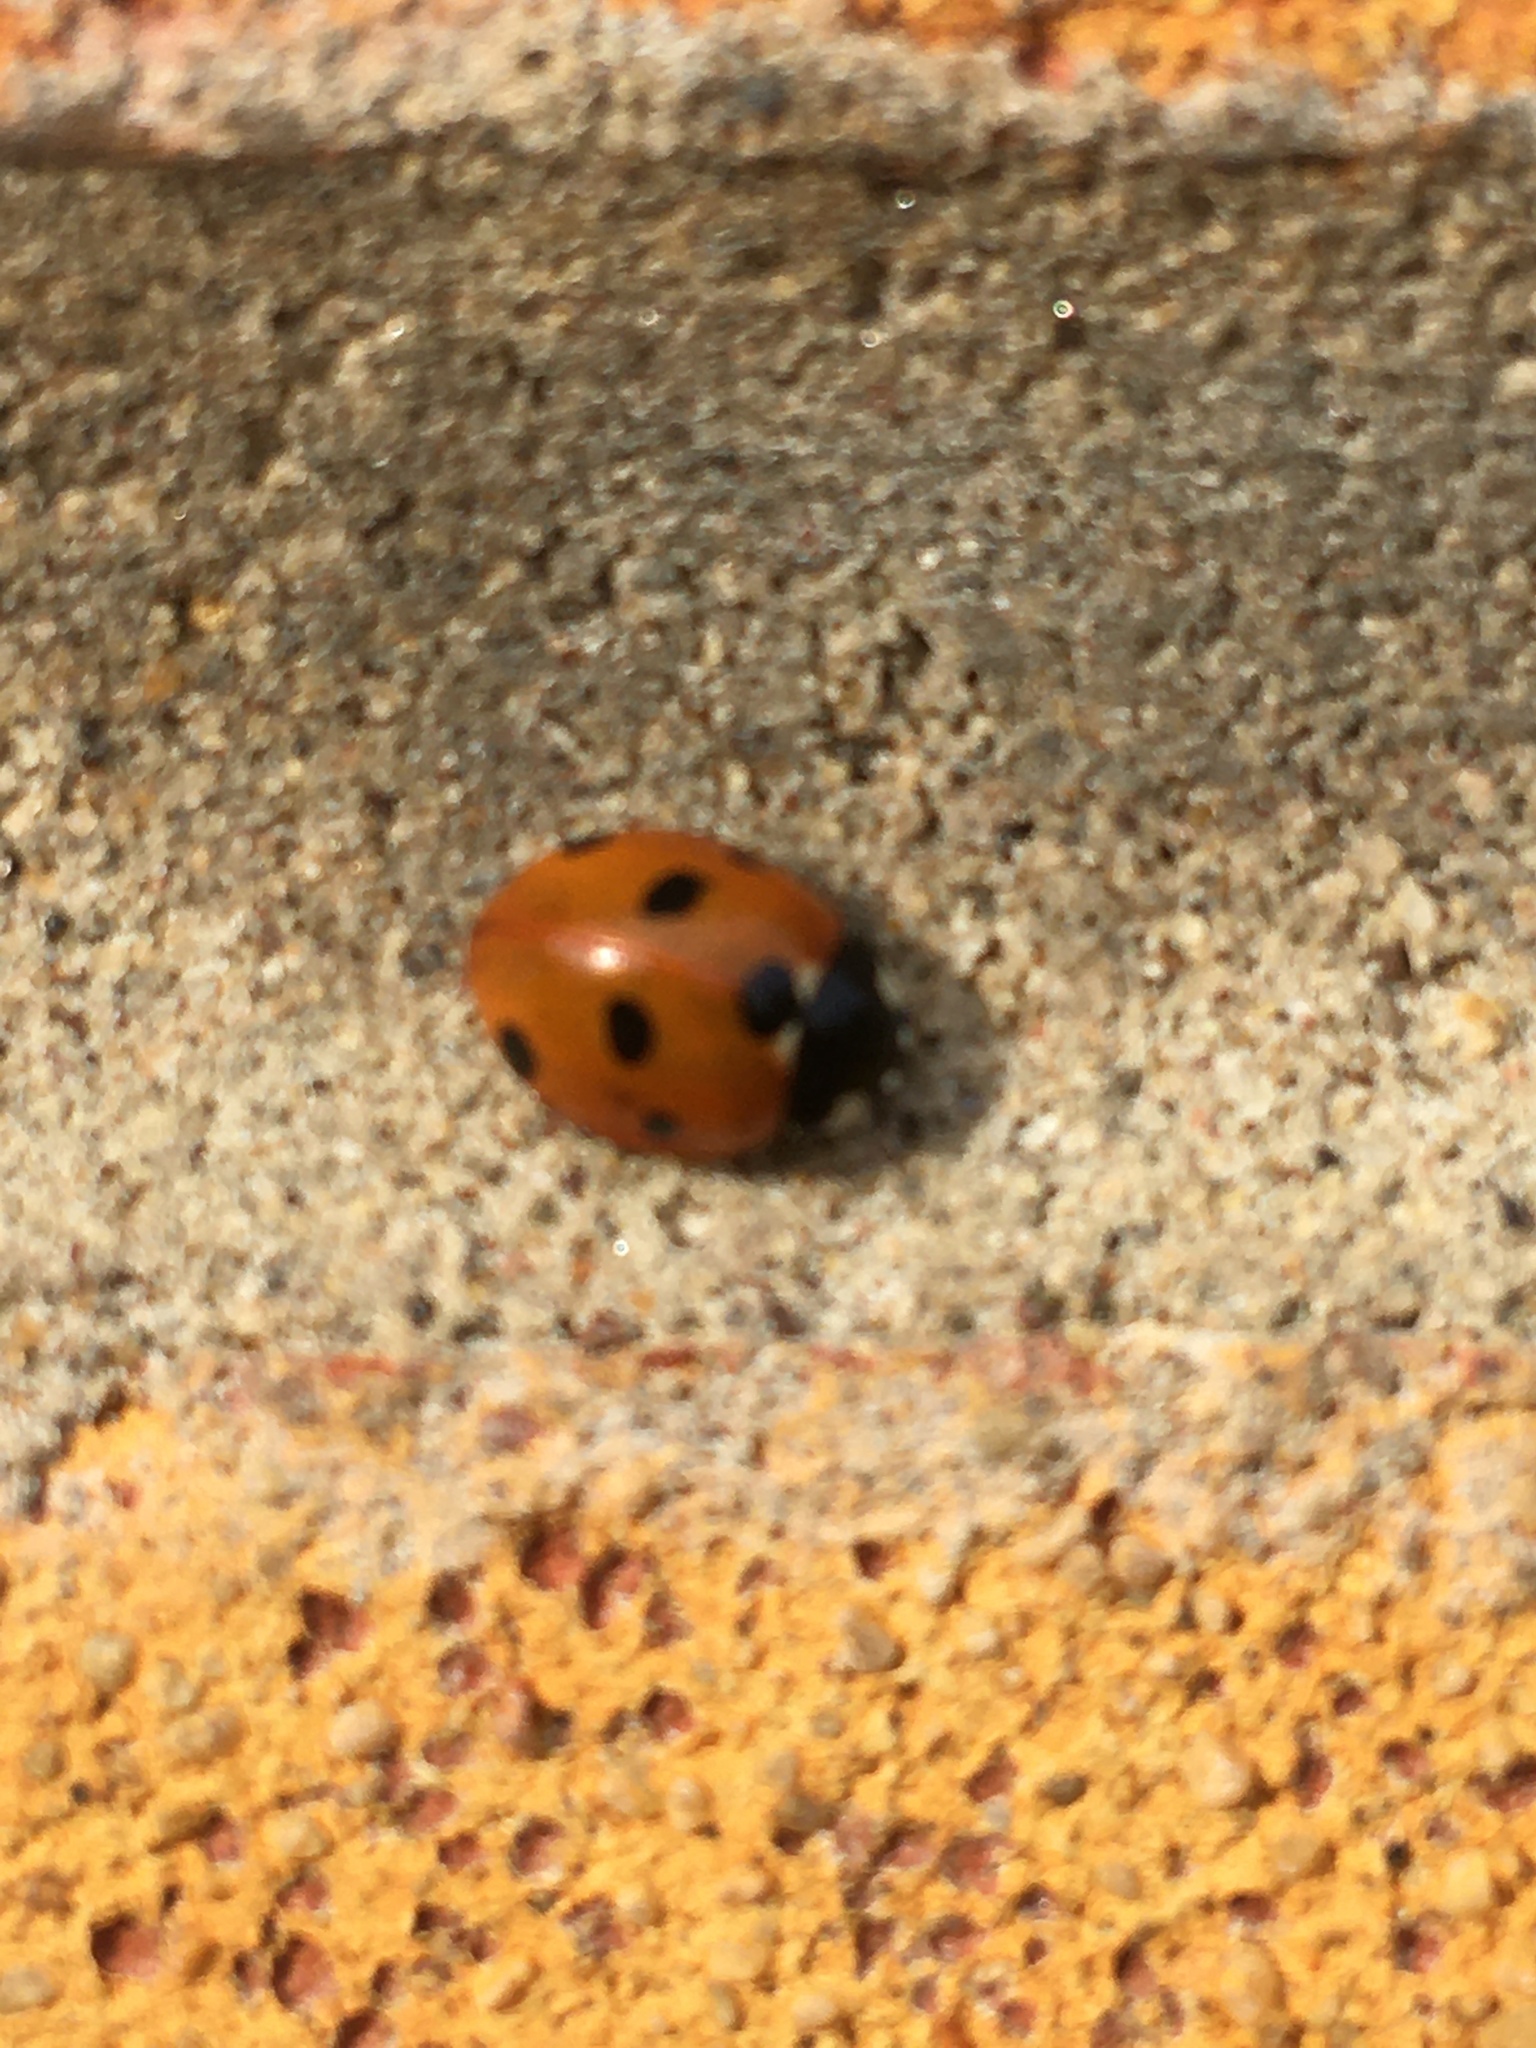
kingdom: Animalia
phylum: Arthropoda
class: Insecta
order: Coleoptera
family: Coccinellidae
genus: Coccinella
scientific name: Coccinella septempunctata
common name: Sevenspotted lady beetle
